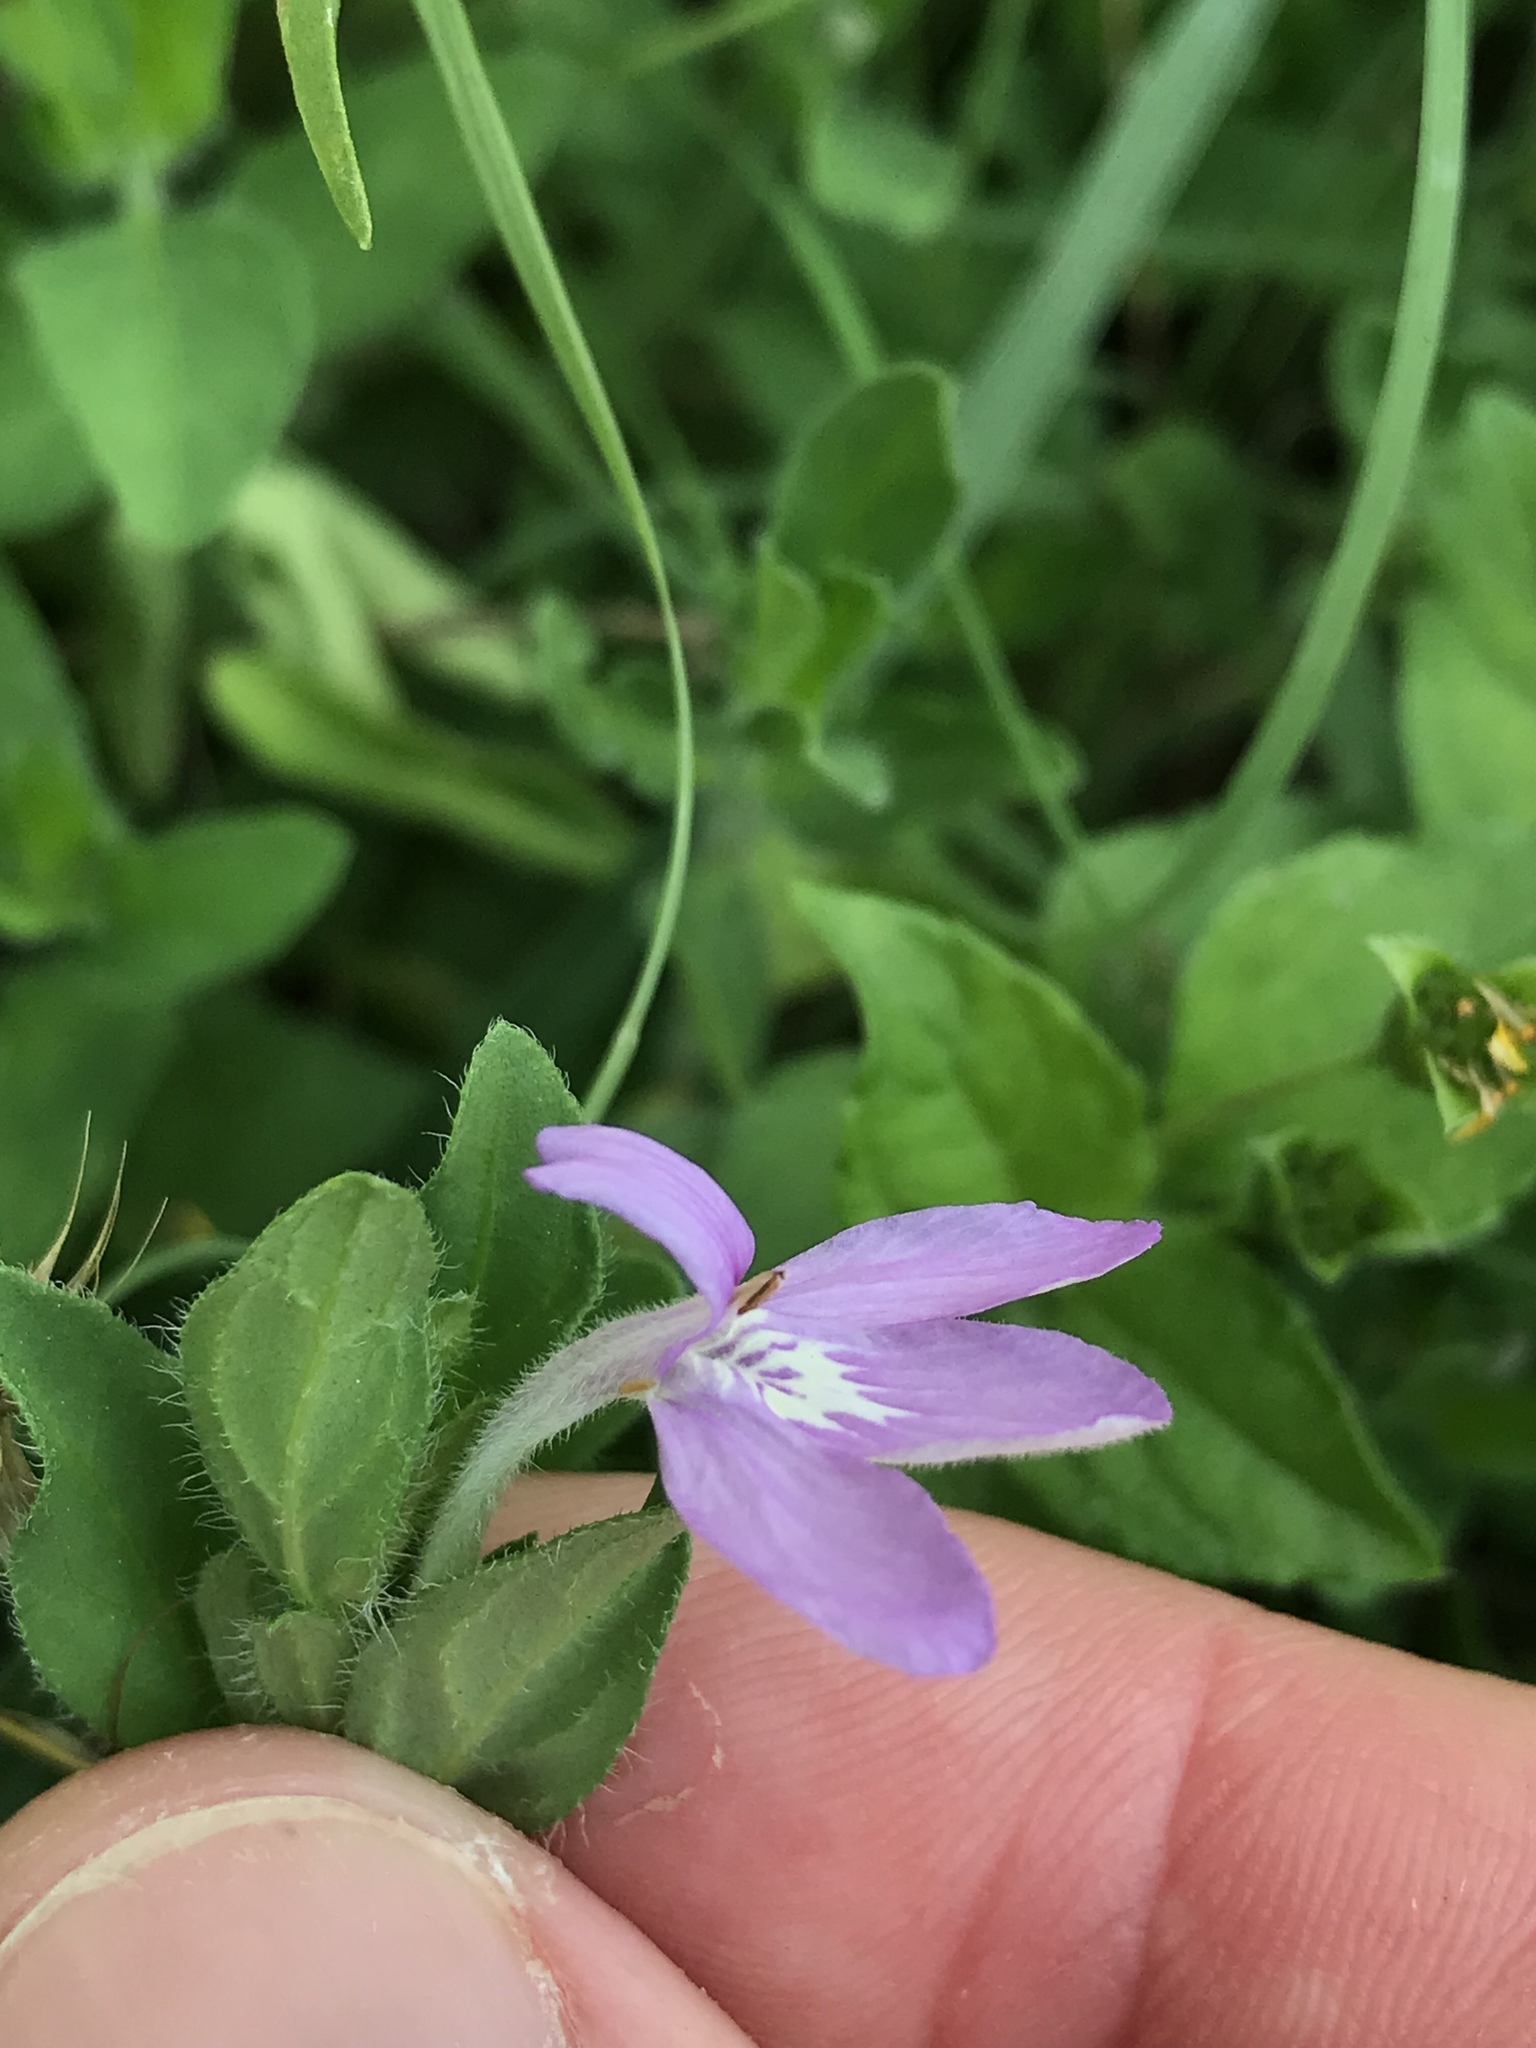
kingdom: Plantae
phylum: Tracheophyta
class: Magnoliopsida
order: Lamiales
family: Acanthaceae
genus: Justicia
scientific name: Justicia pilosella
